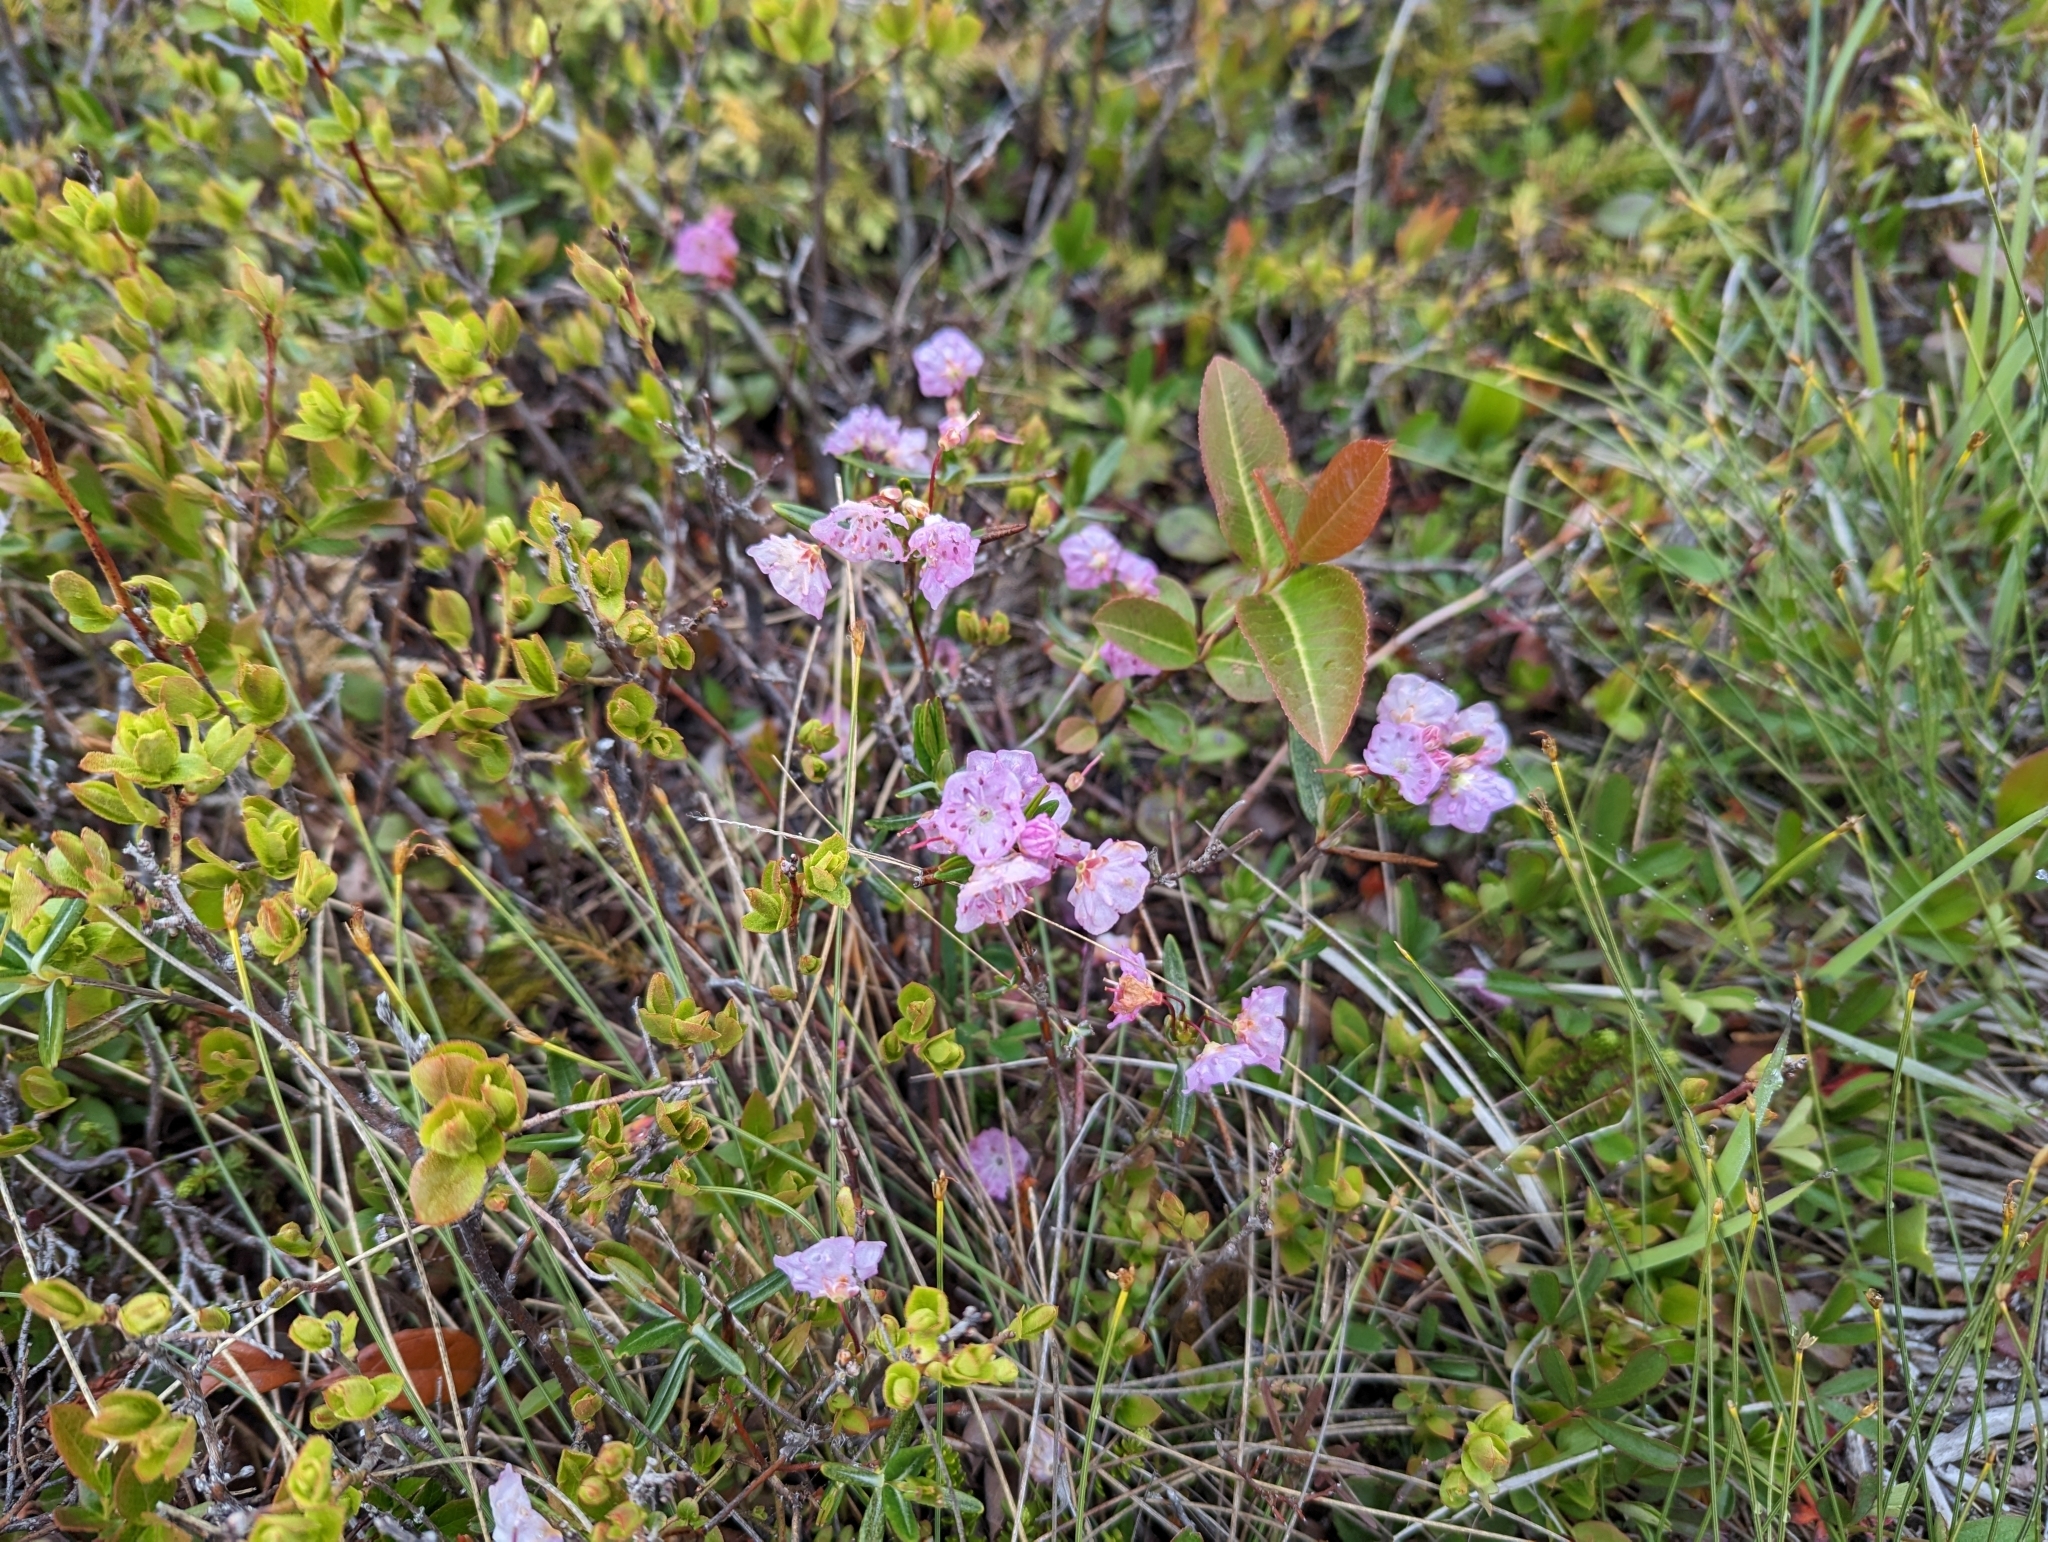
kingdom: Plantae
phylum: Tracheophyta
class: Magnoliopsida
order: Ericales
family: Ericaceae
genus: Kalmia
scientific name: Kalmia polifolia
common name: Bog-laurel
